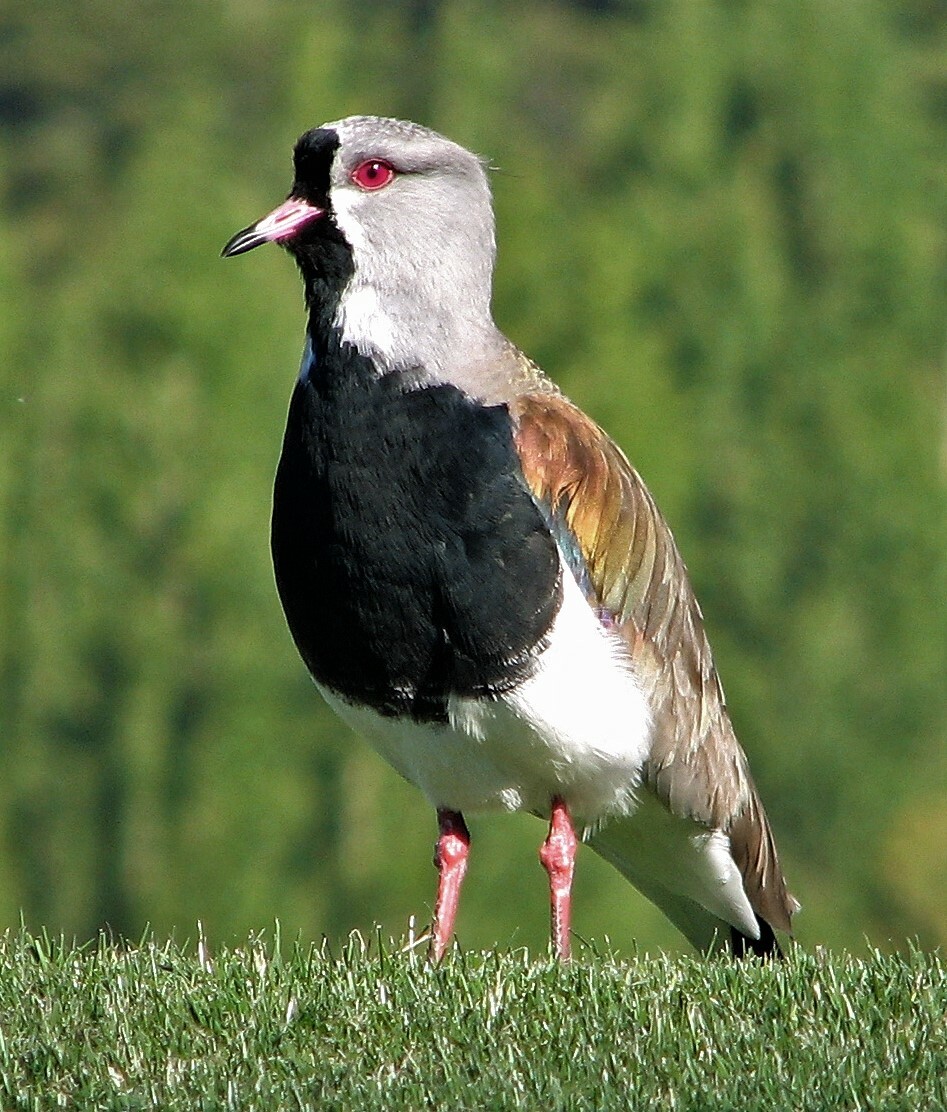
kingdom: Animalia
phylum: Chordata
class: Aves
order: Charadriiformes
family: Charadriidae
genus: Vanellus
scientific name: Vanellus chilensis
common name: Southern lapwing
